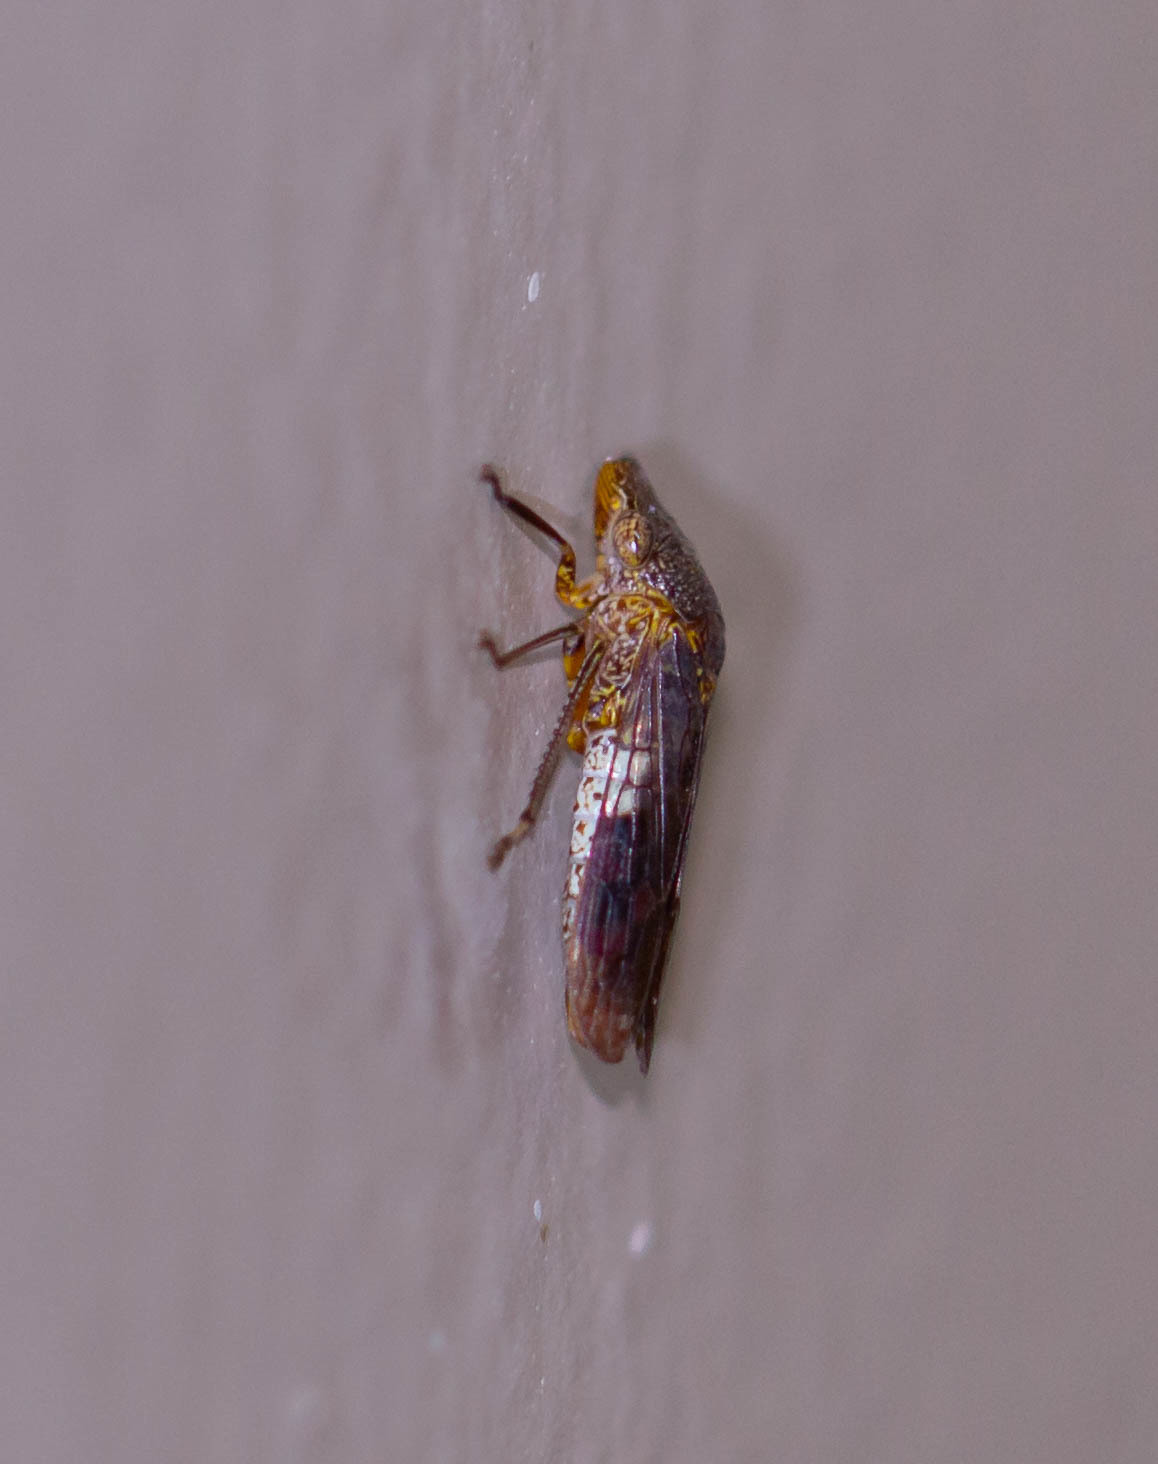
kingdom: Animalia
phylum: Arthropoda
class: Insecta
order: Hemiptera
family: Cicadellidae
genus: Homalodisca
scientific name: Homalodisca vitripennis
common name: Glassy-winged sharpshooter
